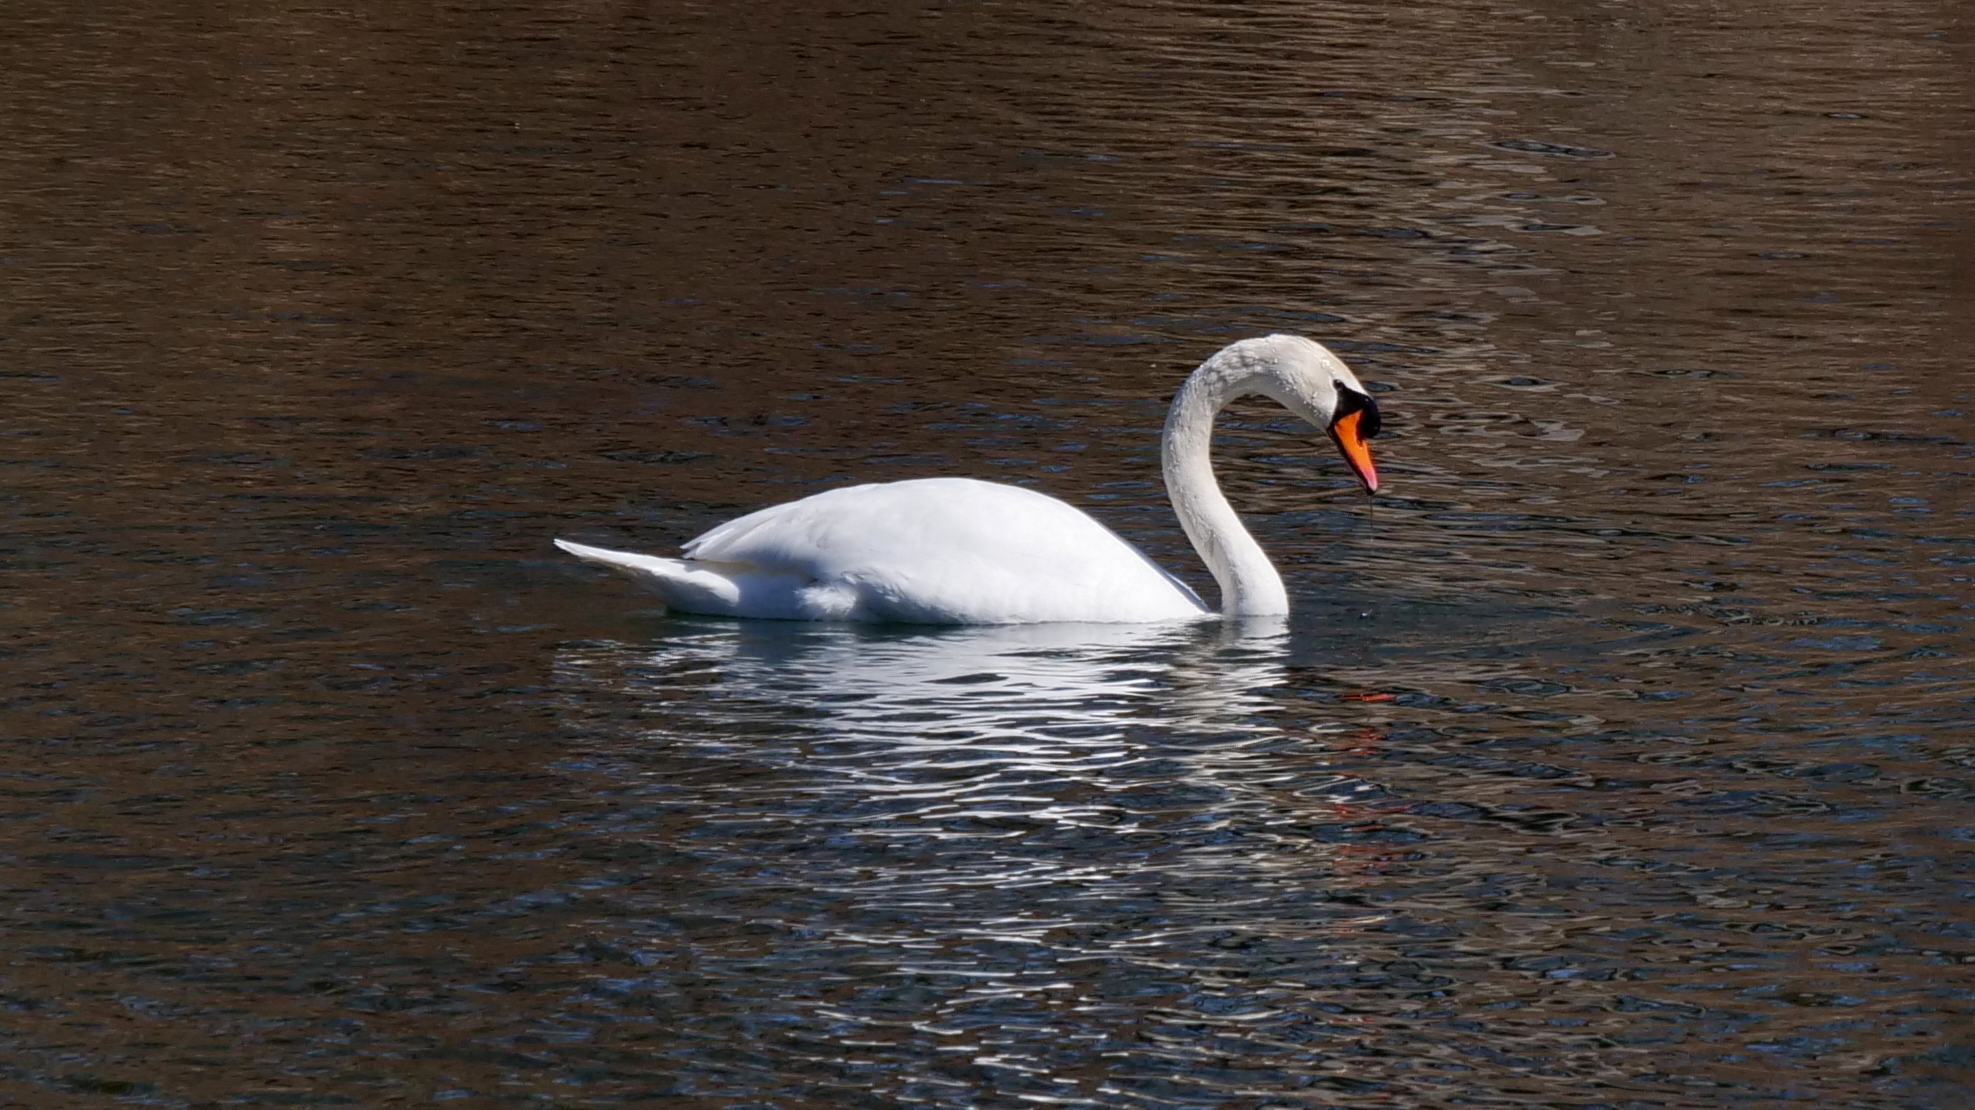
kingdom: Animalia
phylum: Chordata
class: Aves
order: Anseriformes
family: Anatidae
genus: Cygnus
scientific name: Cygnus olor
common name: Mute swan
